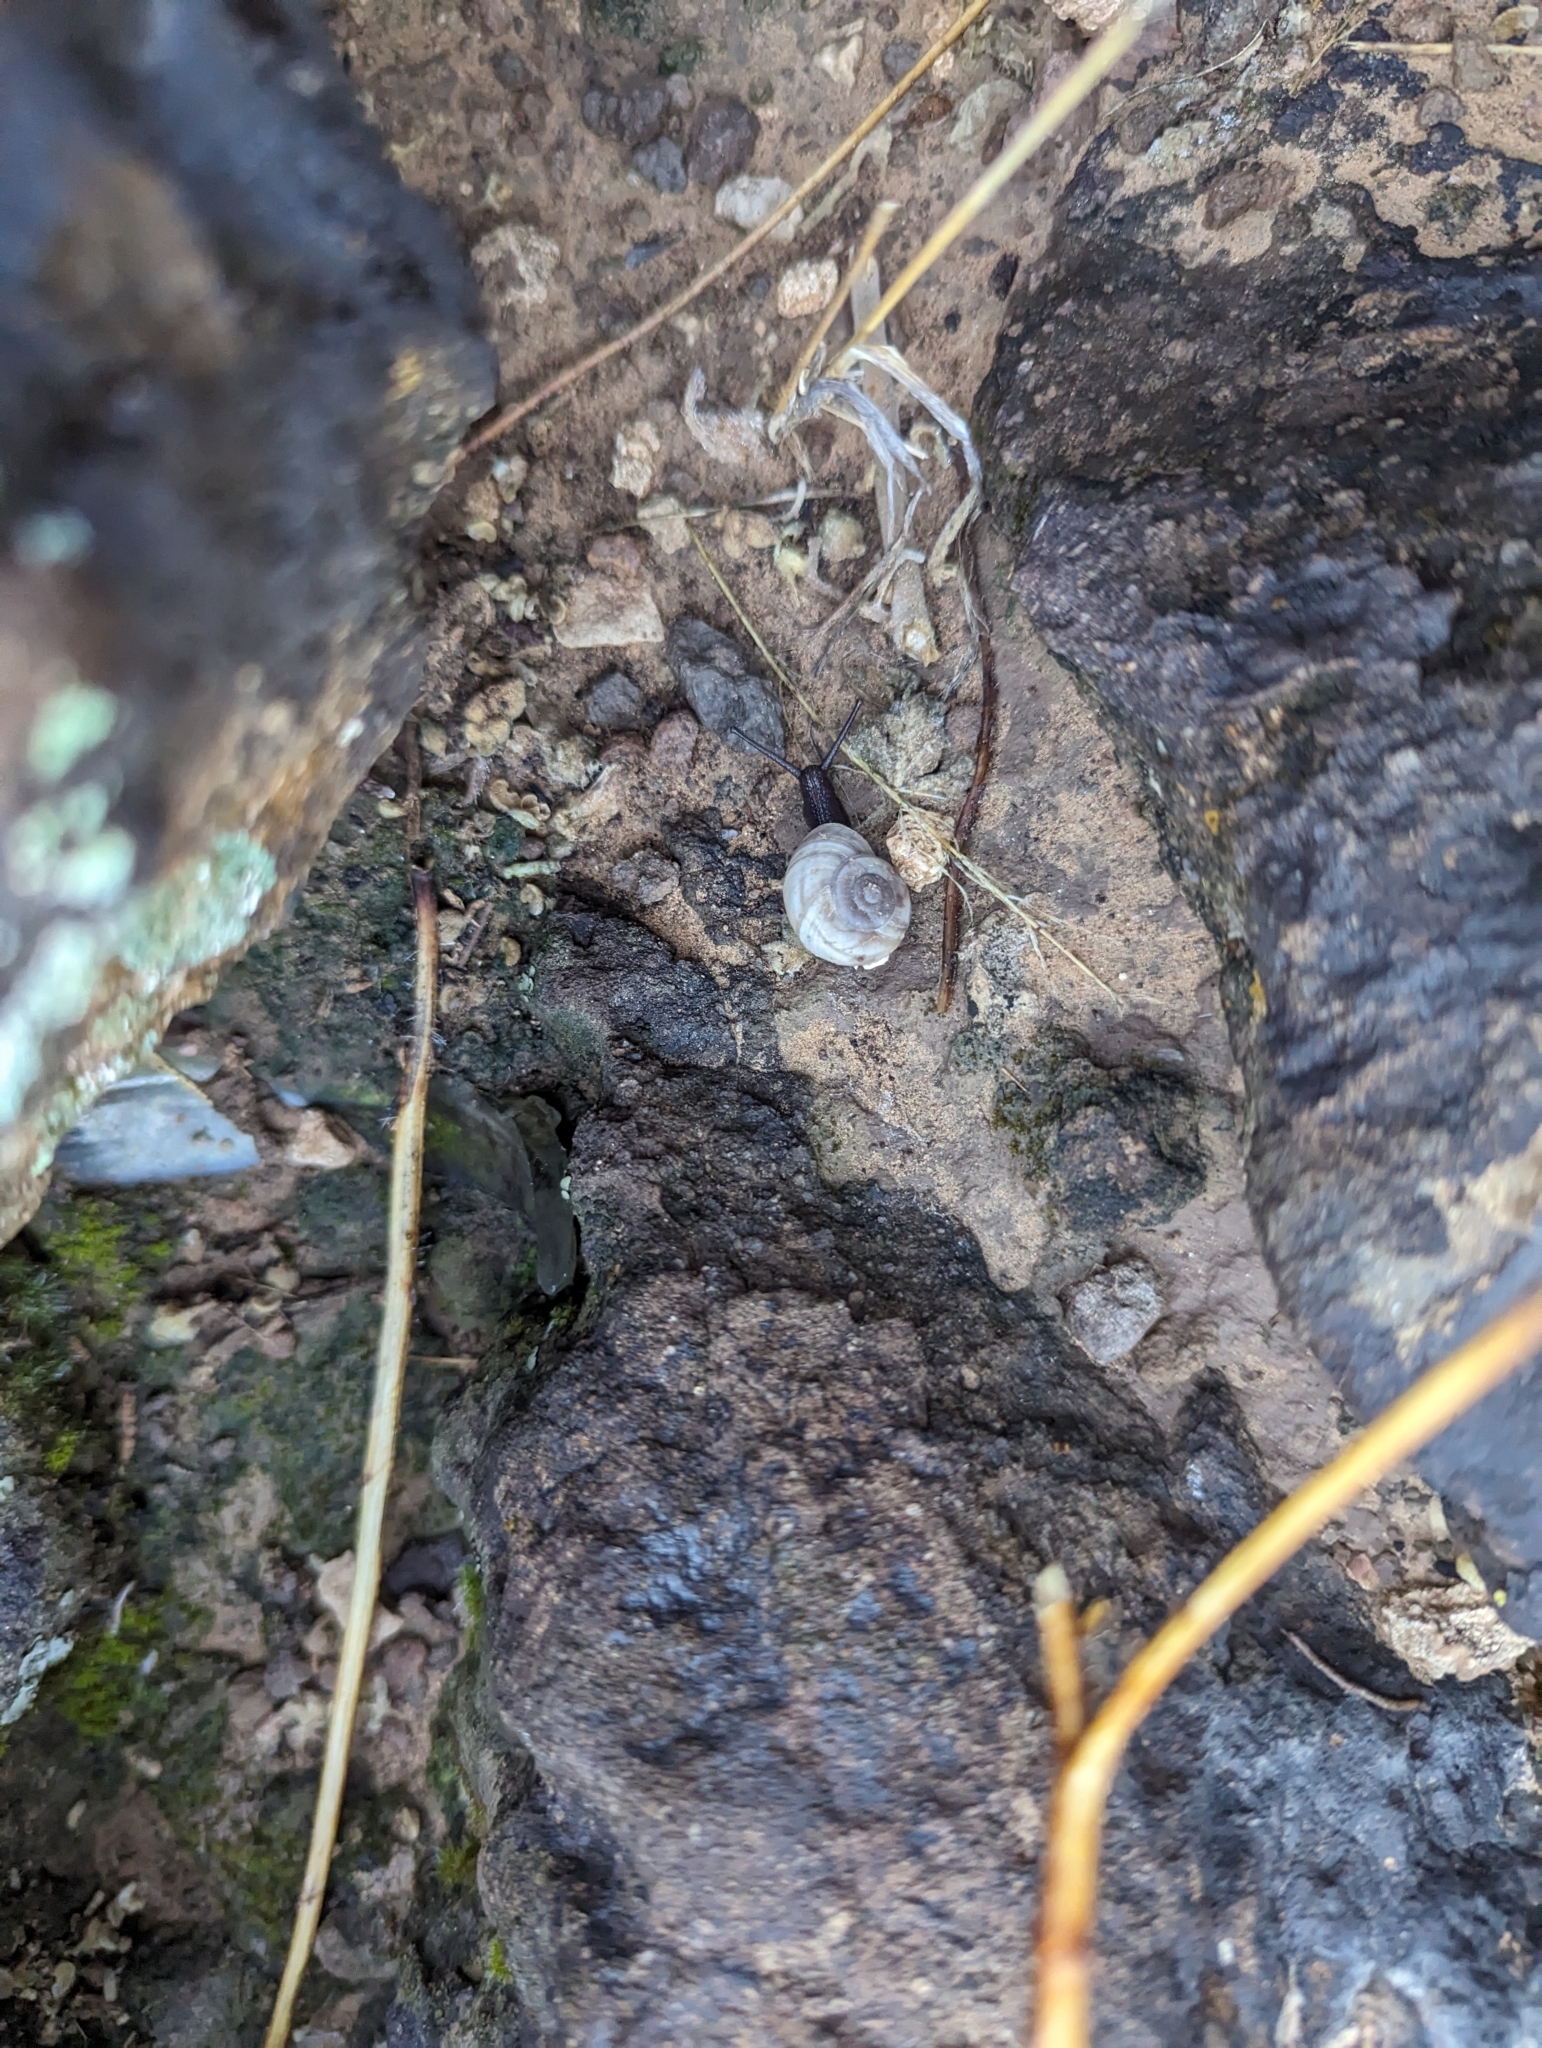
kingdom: Animalia
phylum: Mollusca
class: Gastropoda
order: Stylommatophora
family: Xanthonychidae
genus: Maricopella
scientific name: Maricopella allynsmithi
